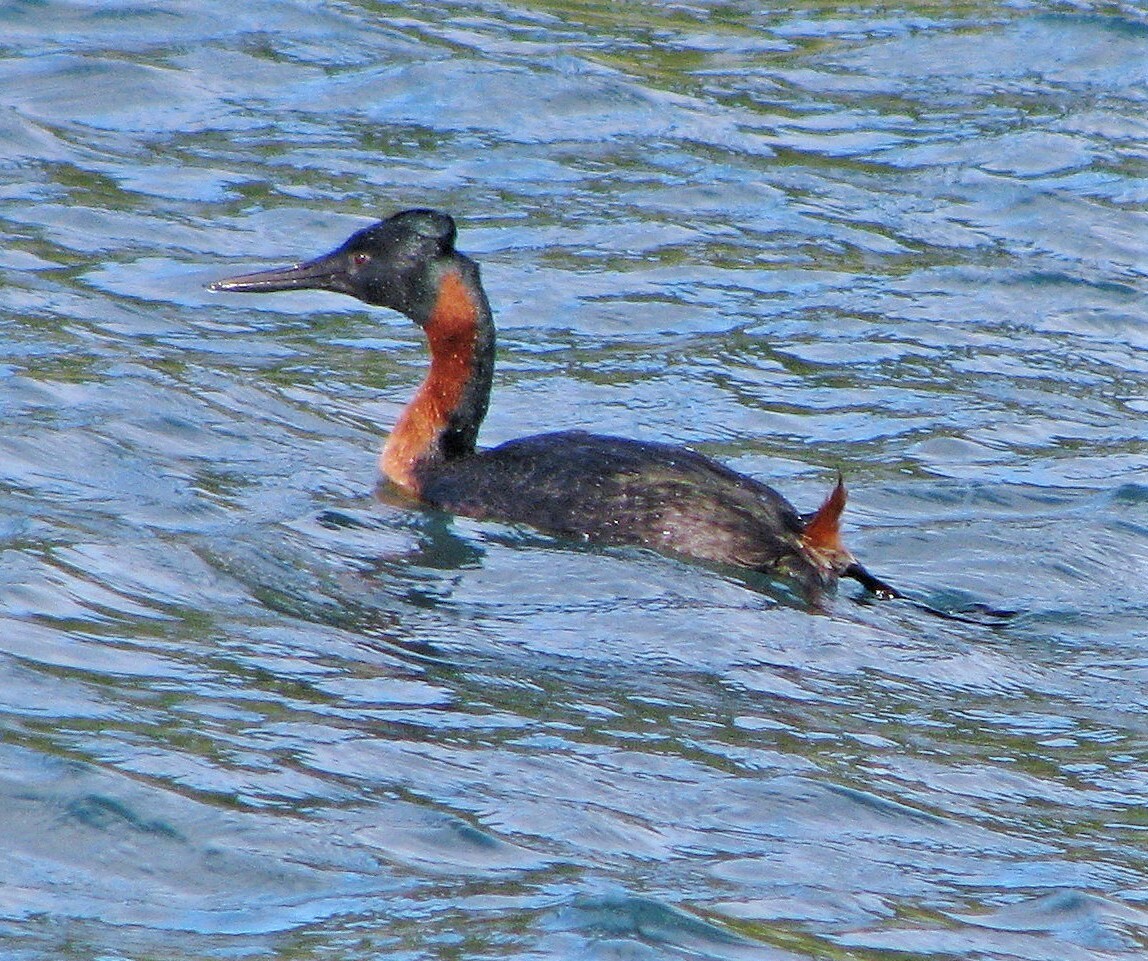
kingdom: Animalia
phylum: Chordata
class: Aves
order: Podicipediformes
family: Podicipedidae
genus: Podiceps
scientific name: Podiceps major
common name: Great grebe
